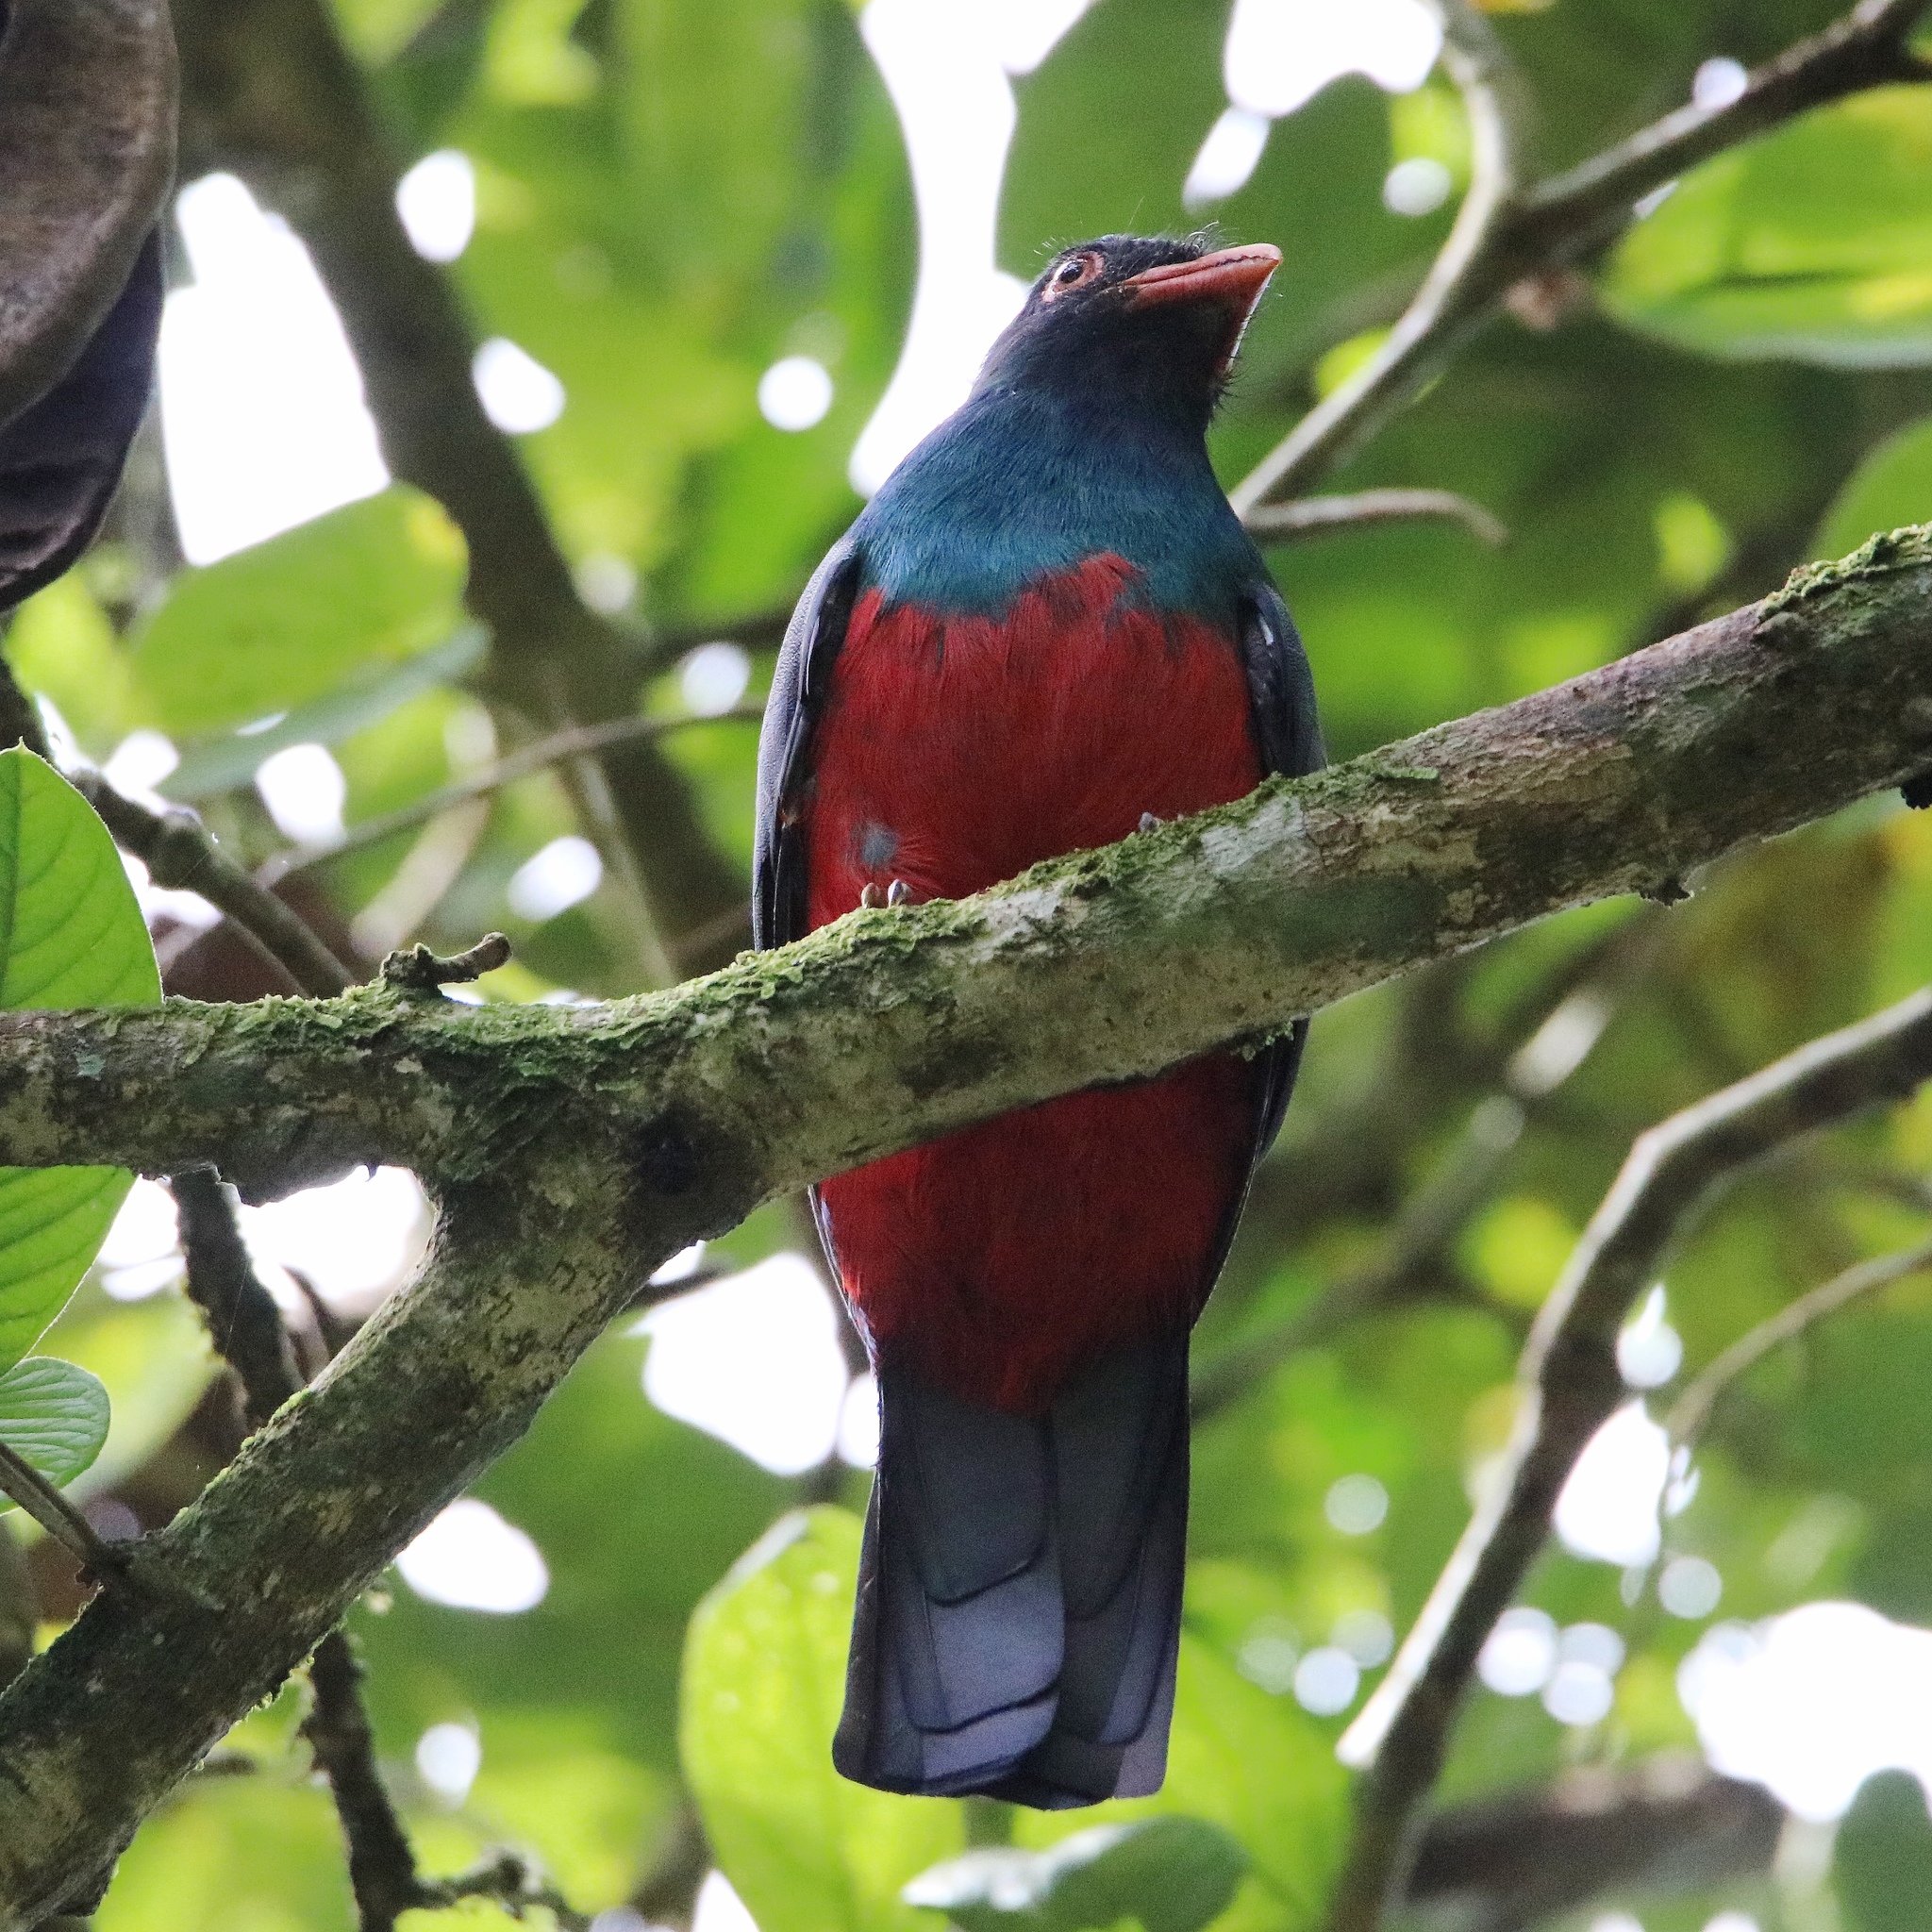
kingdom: Animalia
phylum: Chordata
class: Aves
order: Trogoniformes
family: Trogonidae
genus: Trogon
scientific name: Trogon massena
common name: Slaty-tailed trogon
